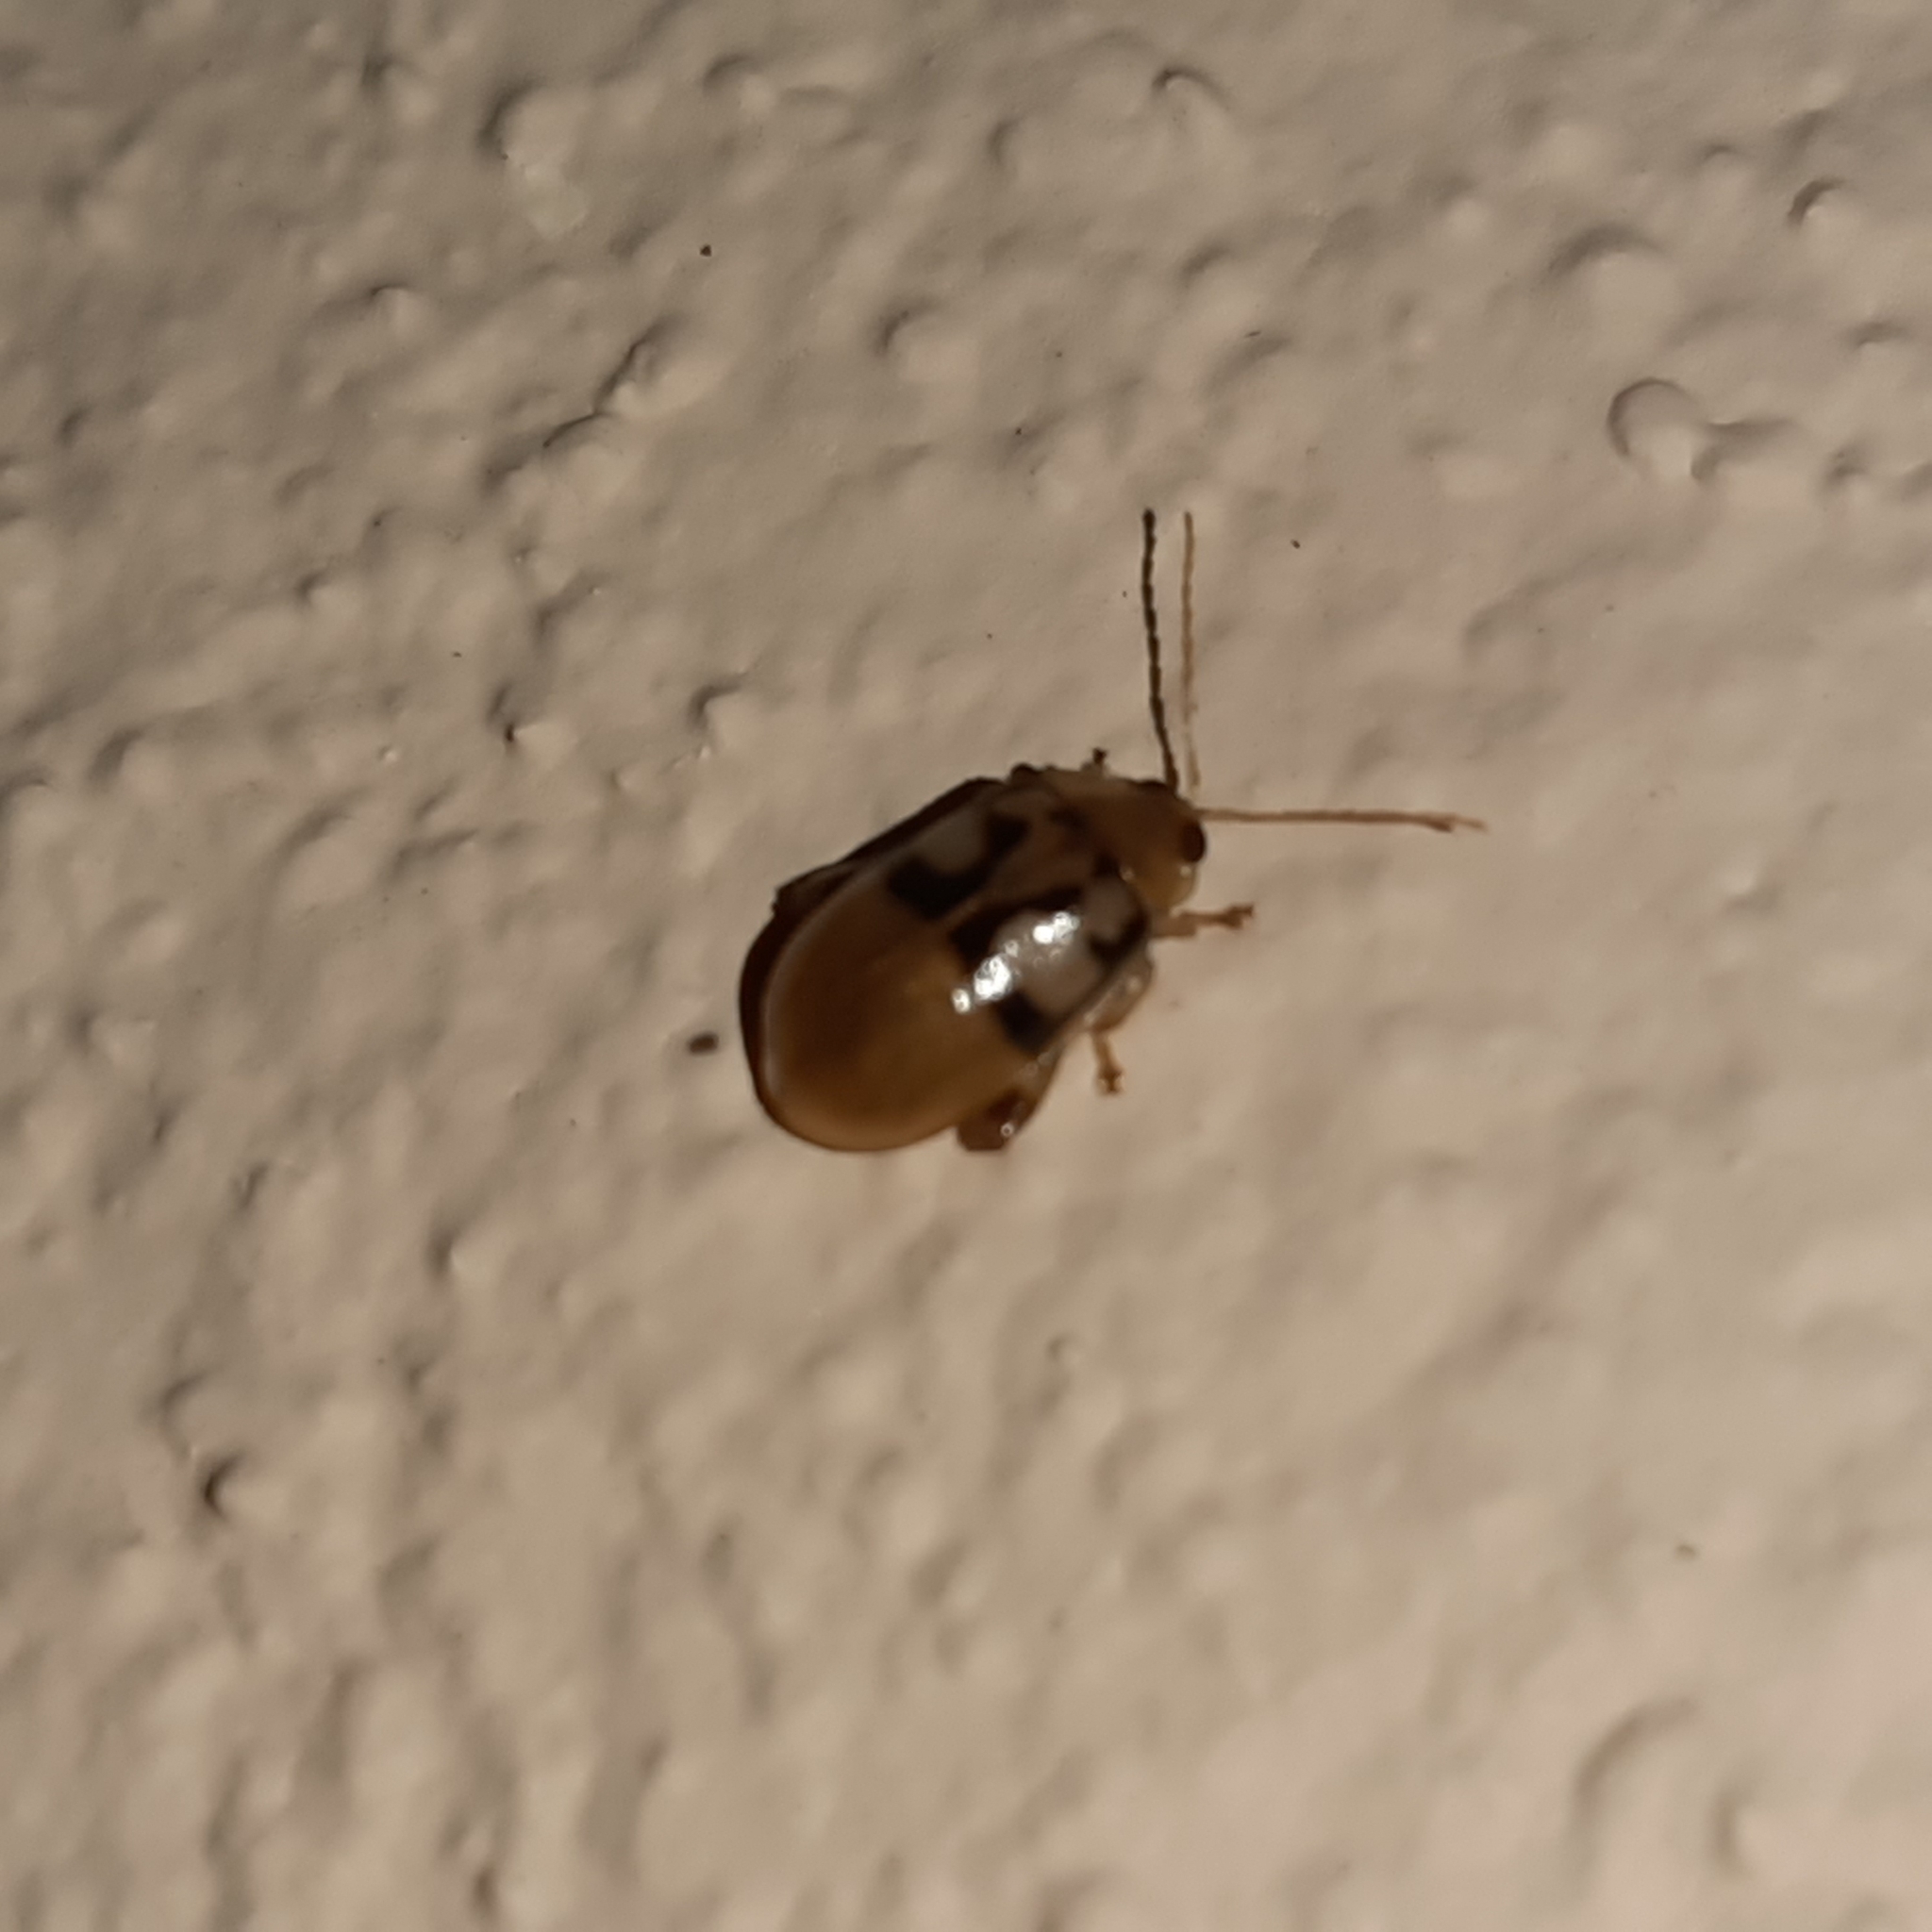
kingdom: Animalia
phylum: Arthropoda
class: Insecta
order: Coleoptera
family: Chrysomelidae
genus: Walterianella
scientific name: Walterianella
